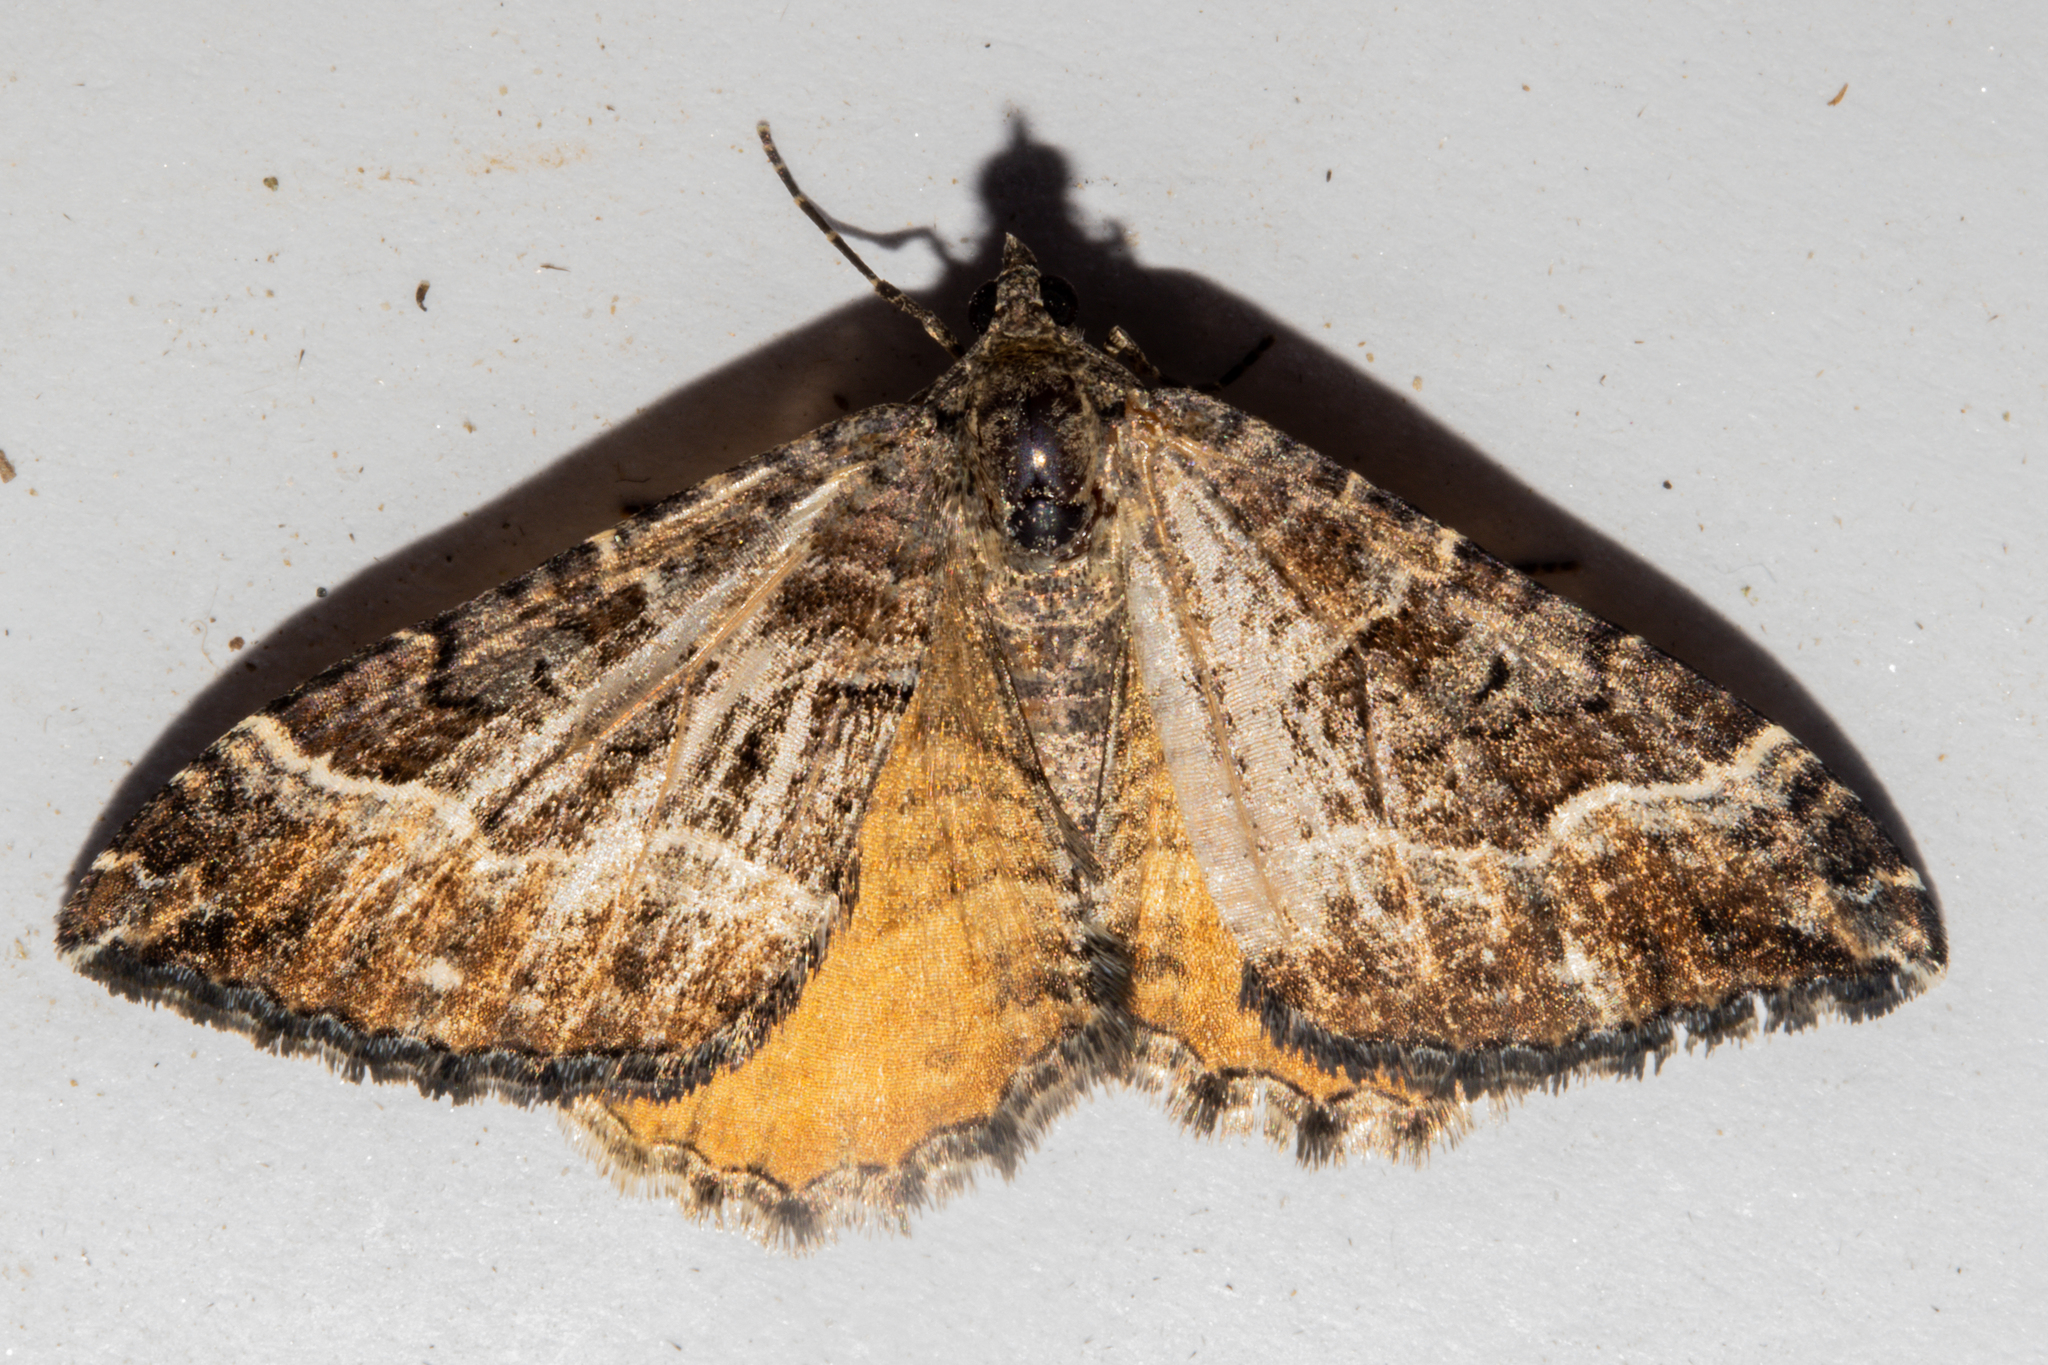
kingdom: Animalia
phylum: Arthropoda
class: Insecta
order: Lepidoptera
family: Geometridae
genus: Hydriomena
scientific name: Hydriomena deltoidata
